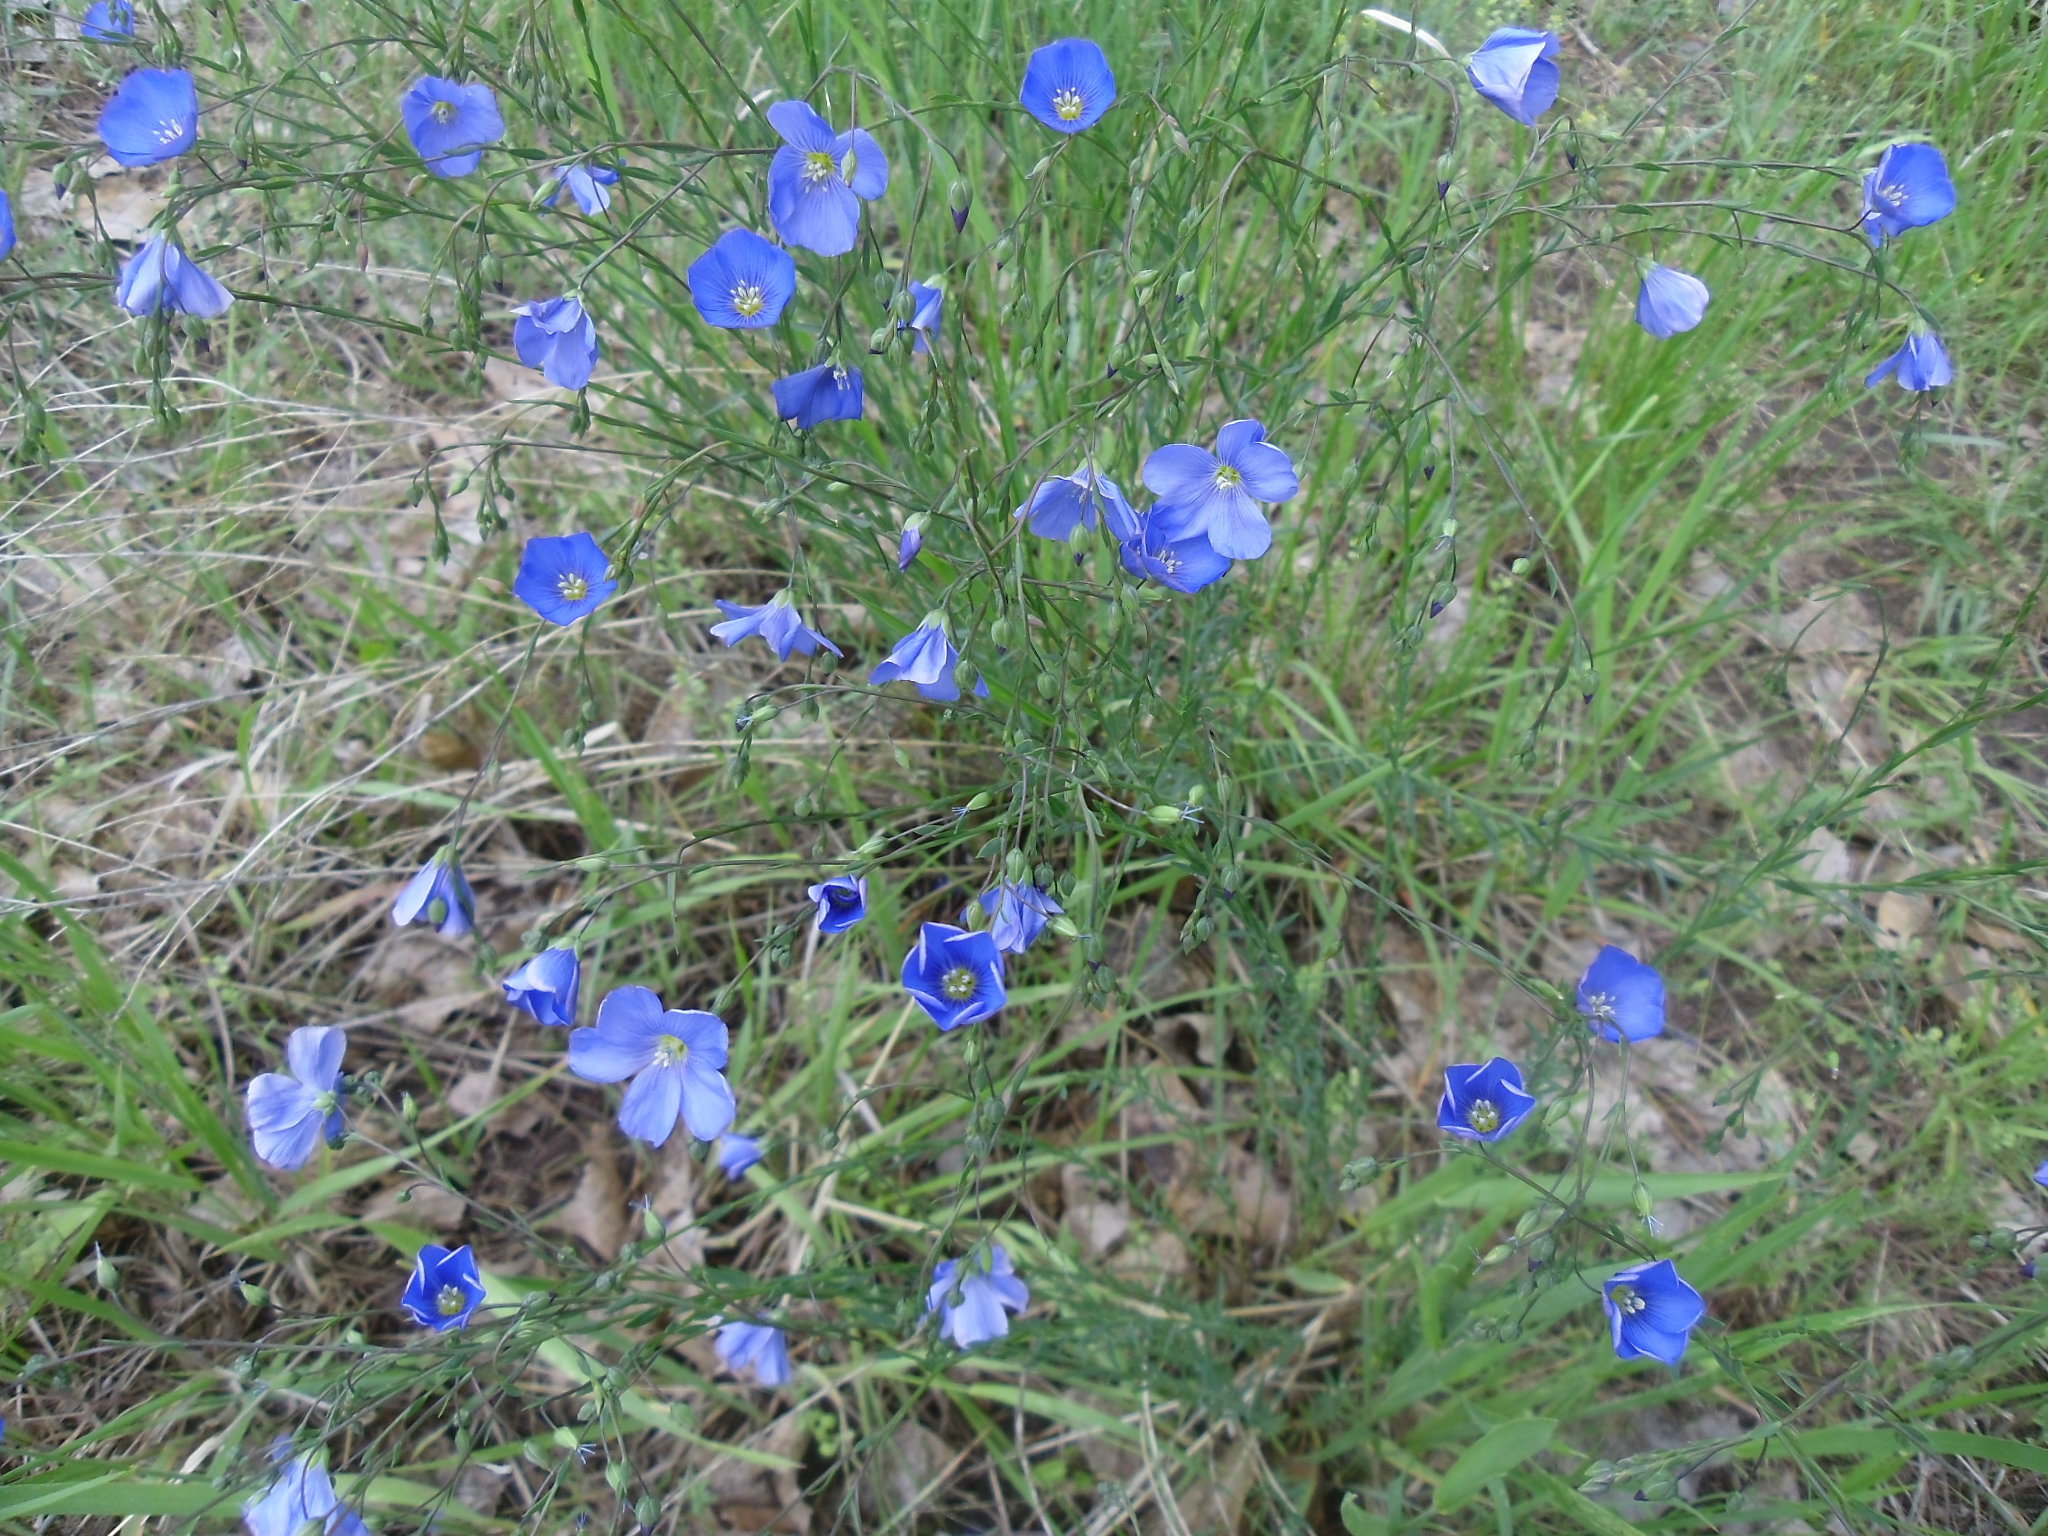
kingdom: Plantae
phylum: Tracheophyta
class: Magnoliopsida
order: Malpighiales
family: Linaceae
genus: Linum
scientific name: Linum lewisii
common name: Prairie flax
